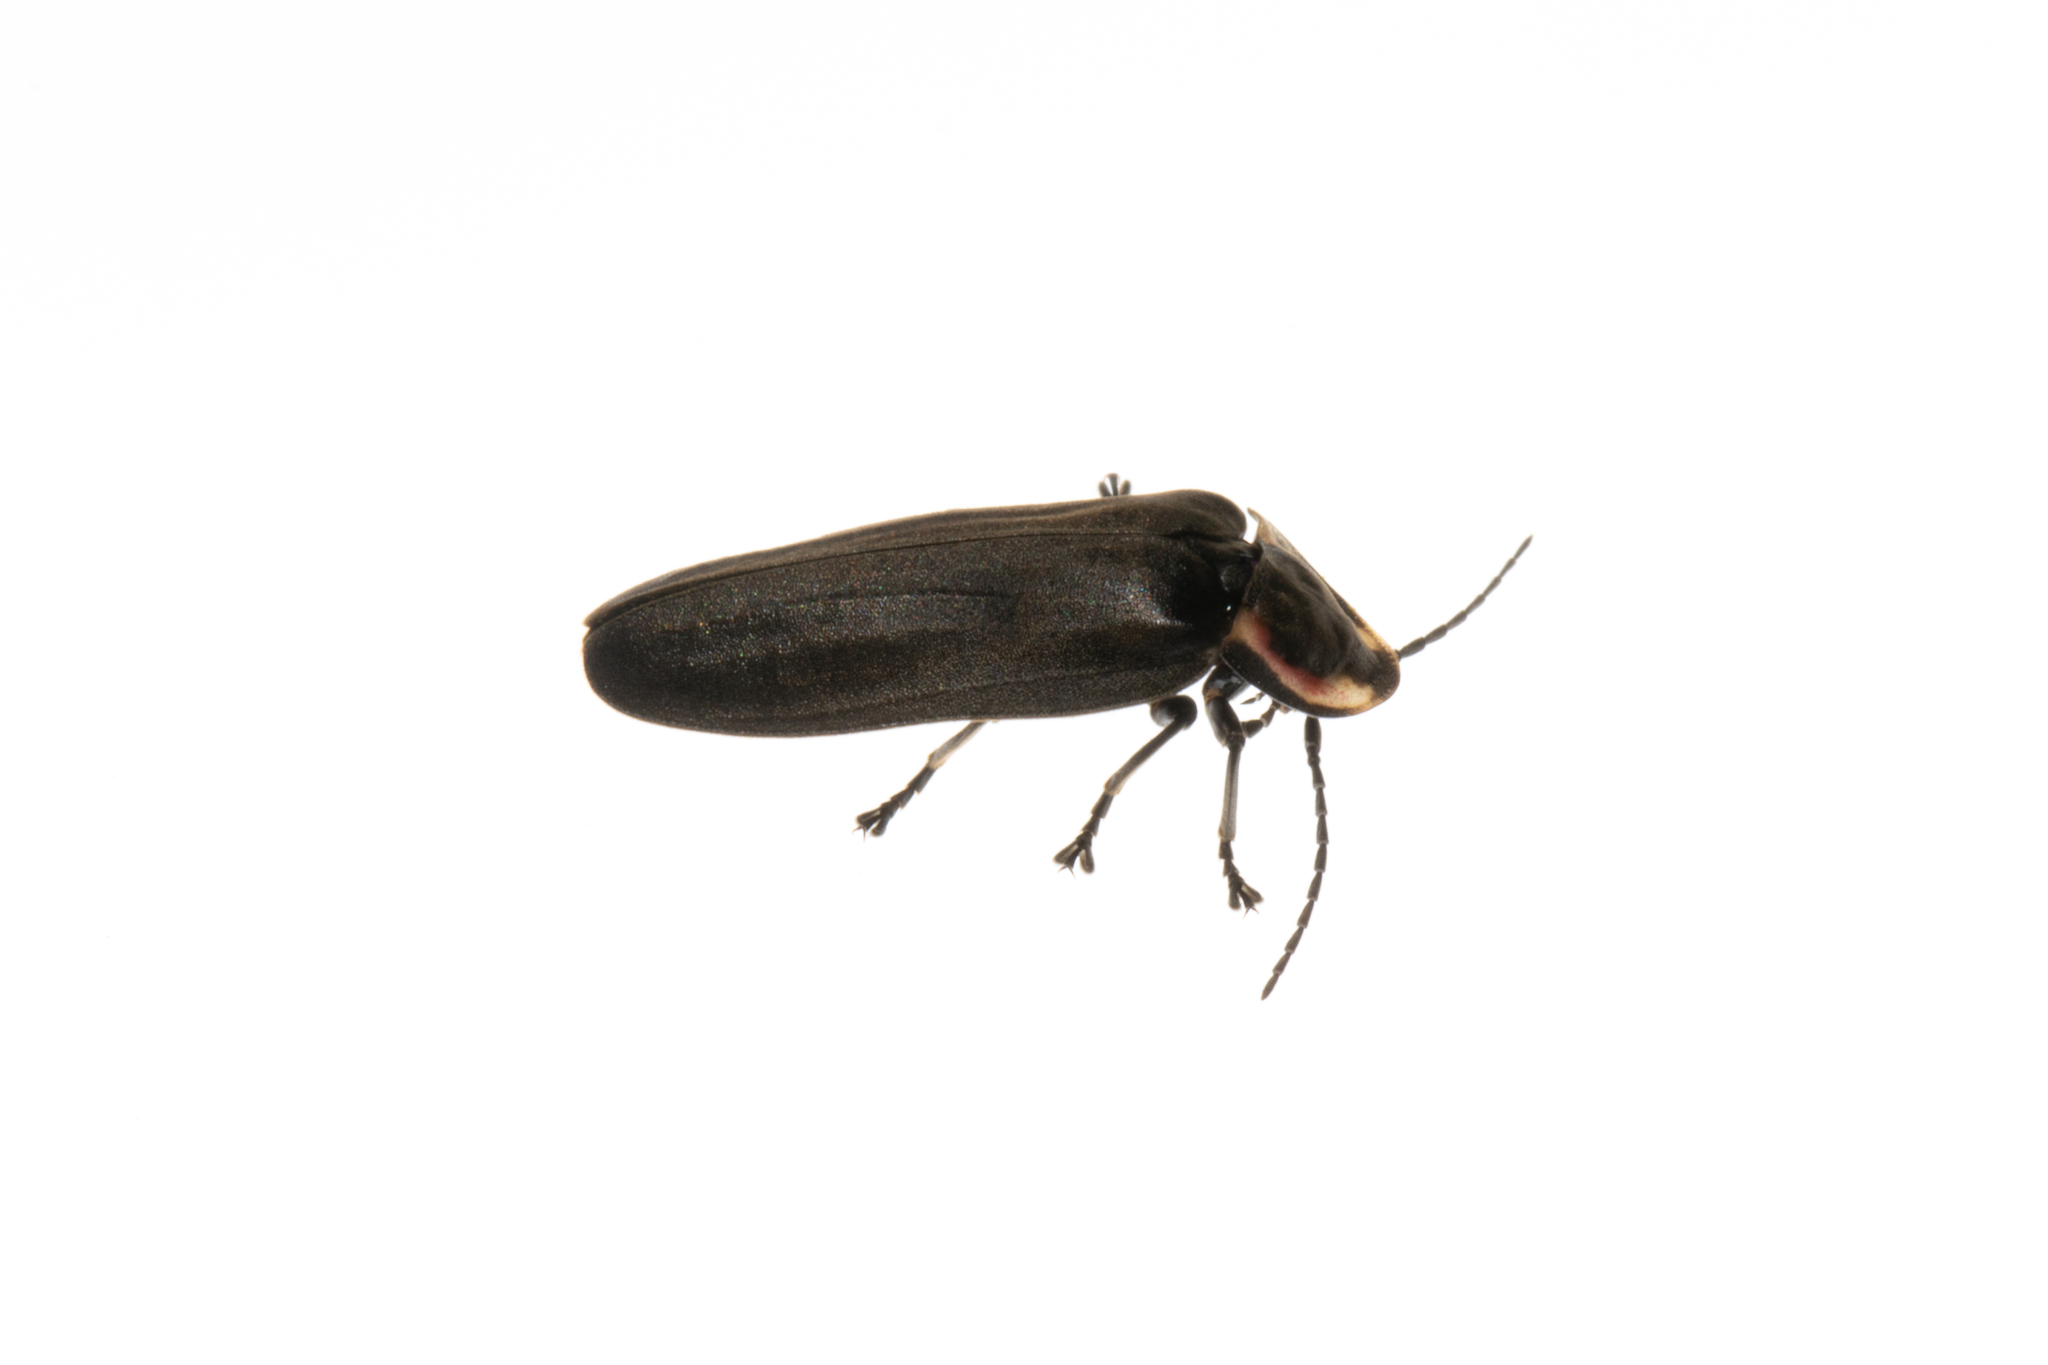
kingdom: Animalia
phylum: Arthropoda
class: Insecta
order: Coleoptera
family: Lampyridae
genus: Photinus
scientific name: Photinus corrusca
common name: Winter firefly
